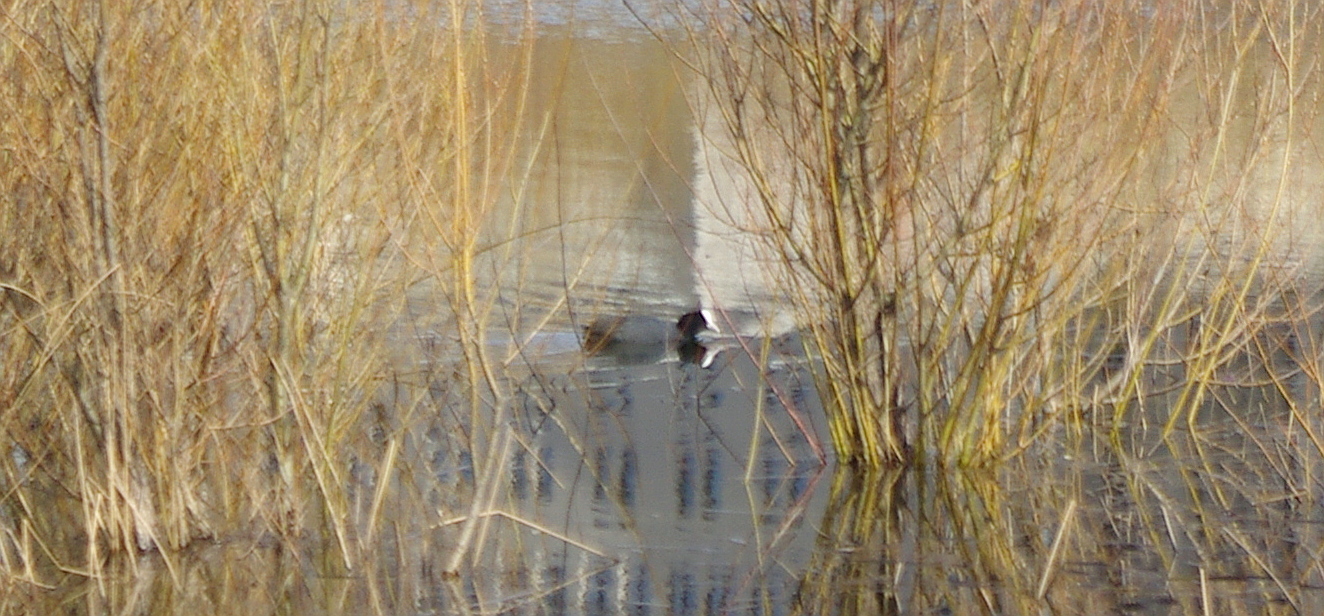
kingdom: Animalia
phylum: Chordata
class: Aves
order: Gruiformes
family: Rallidae
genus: Fulica
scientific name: Fulica atra
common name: Eurasian coot
